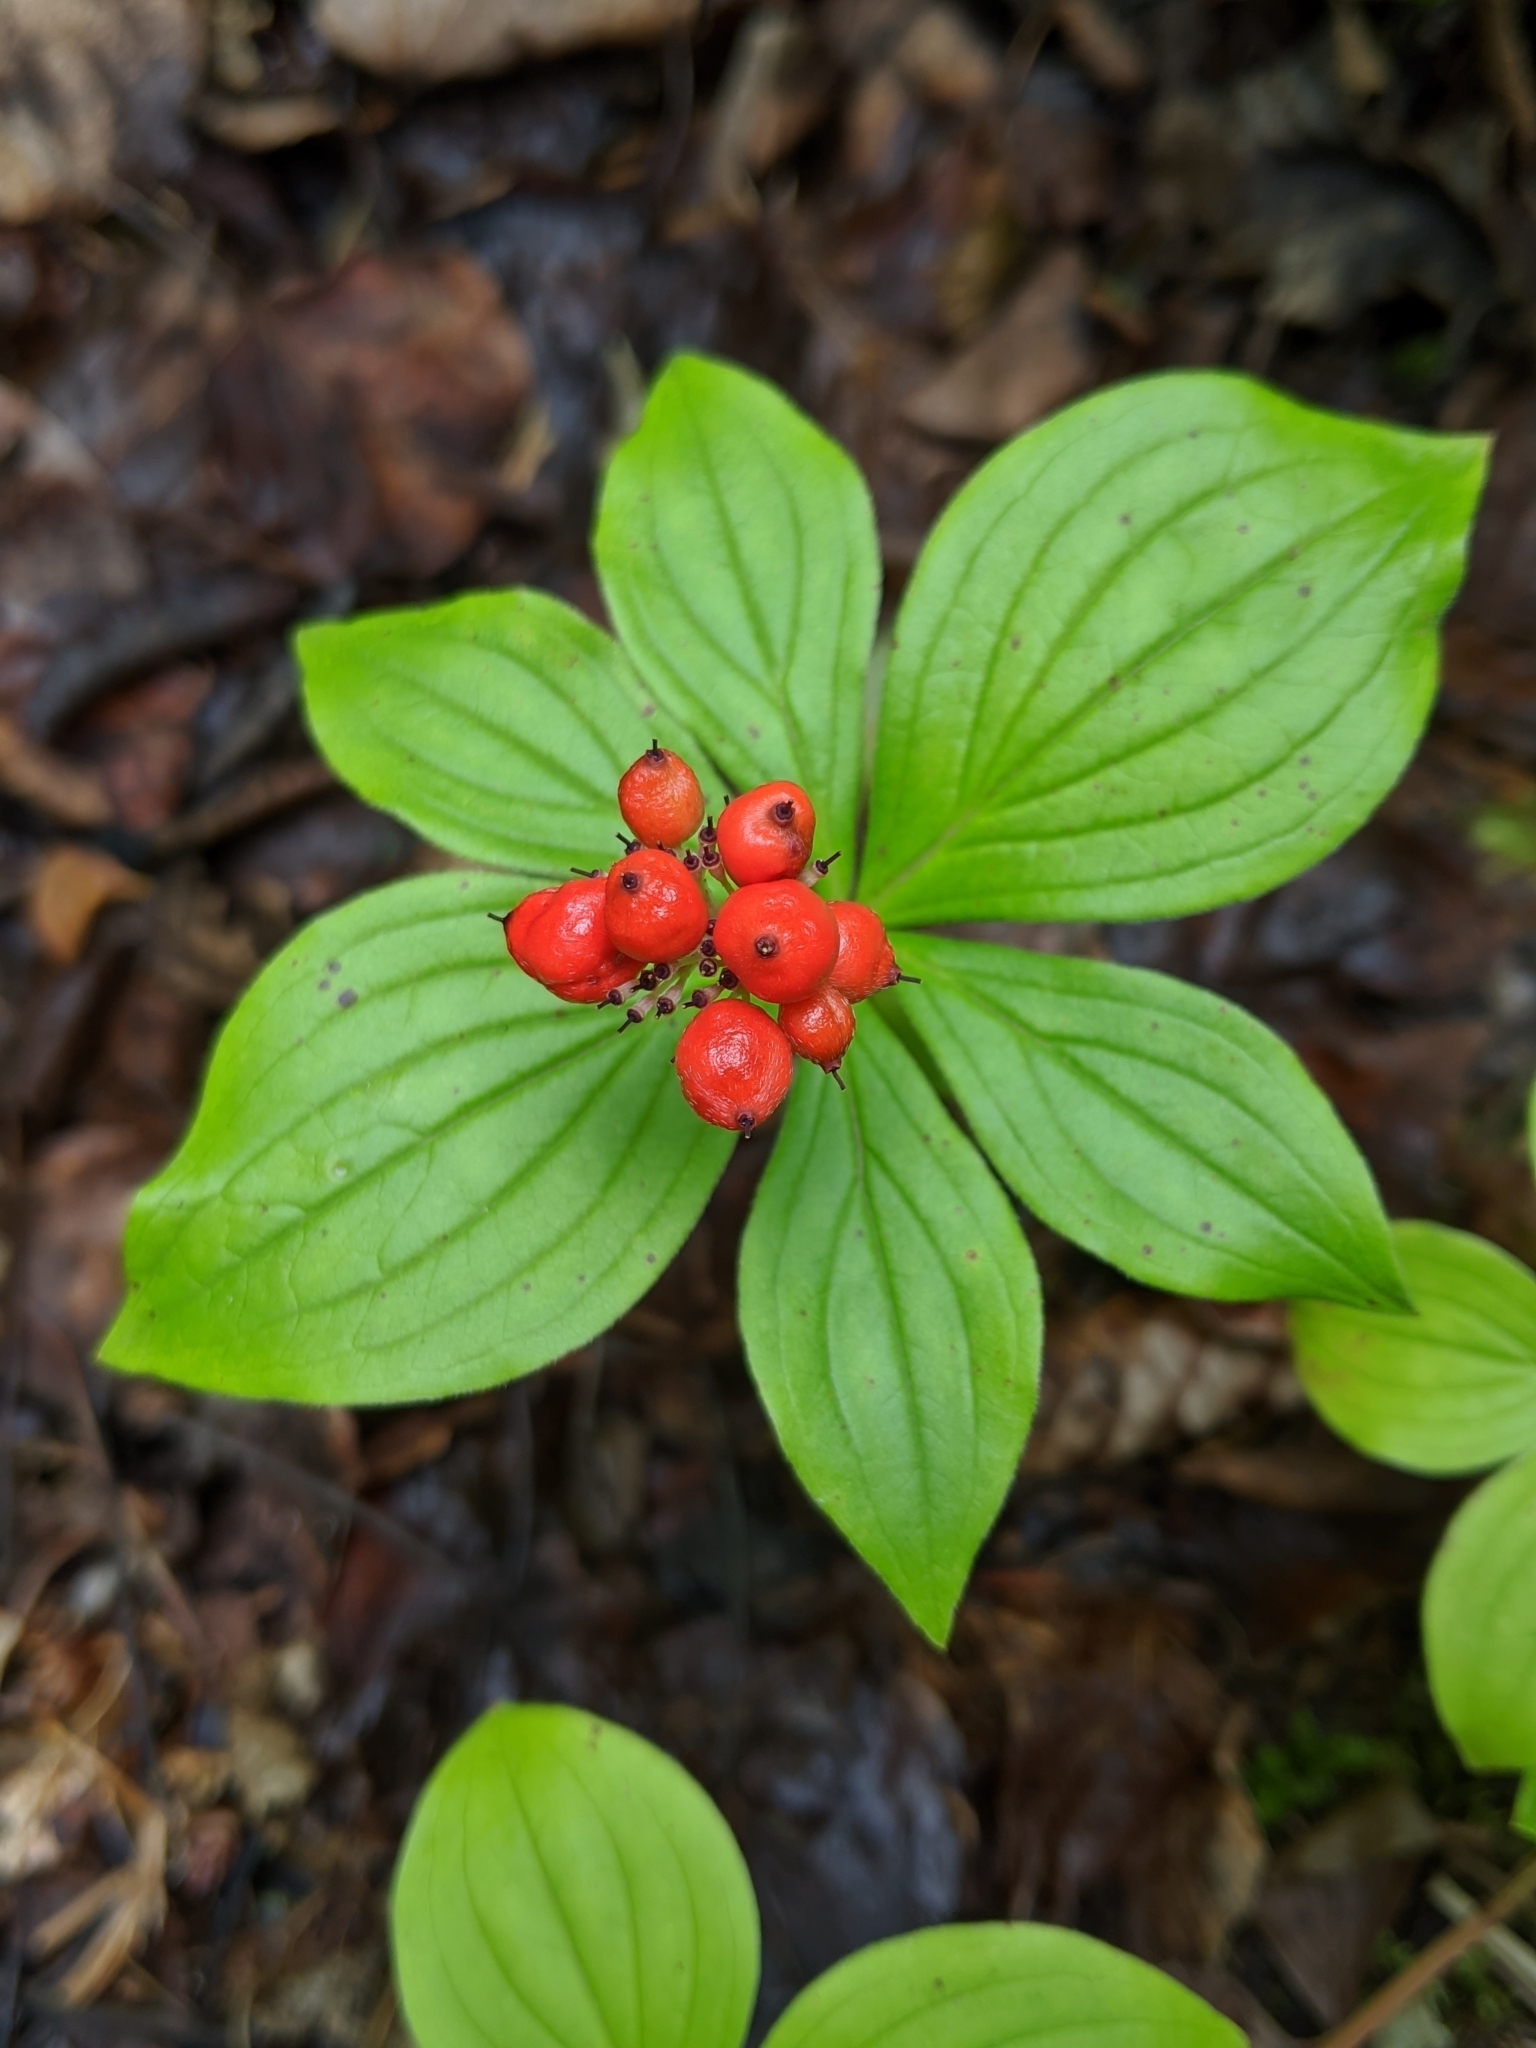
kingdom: Plantae
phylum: Tracheophyta
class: Magnoliopsida
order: Cornales
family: Cornaceae
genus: Cornus
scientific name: Cornus unalaschkensis
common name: Alaska bunchberry
